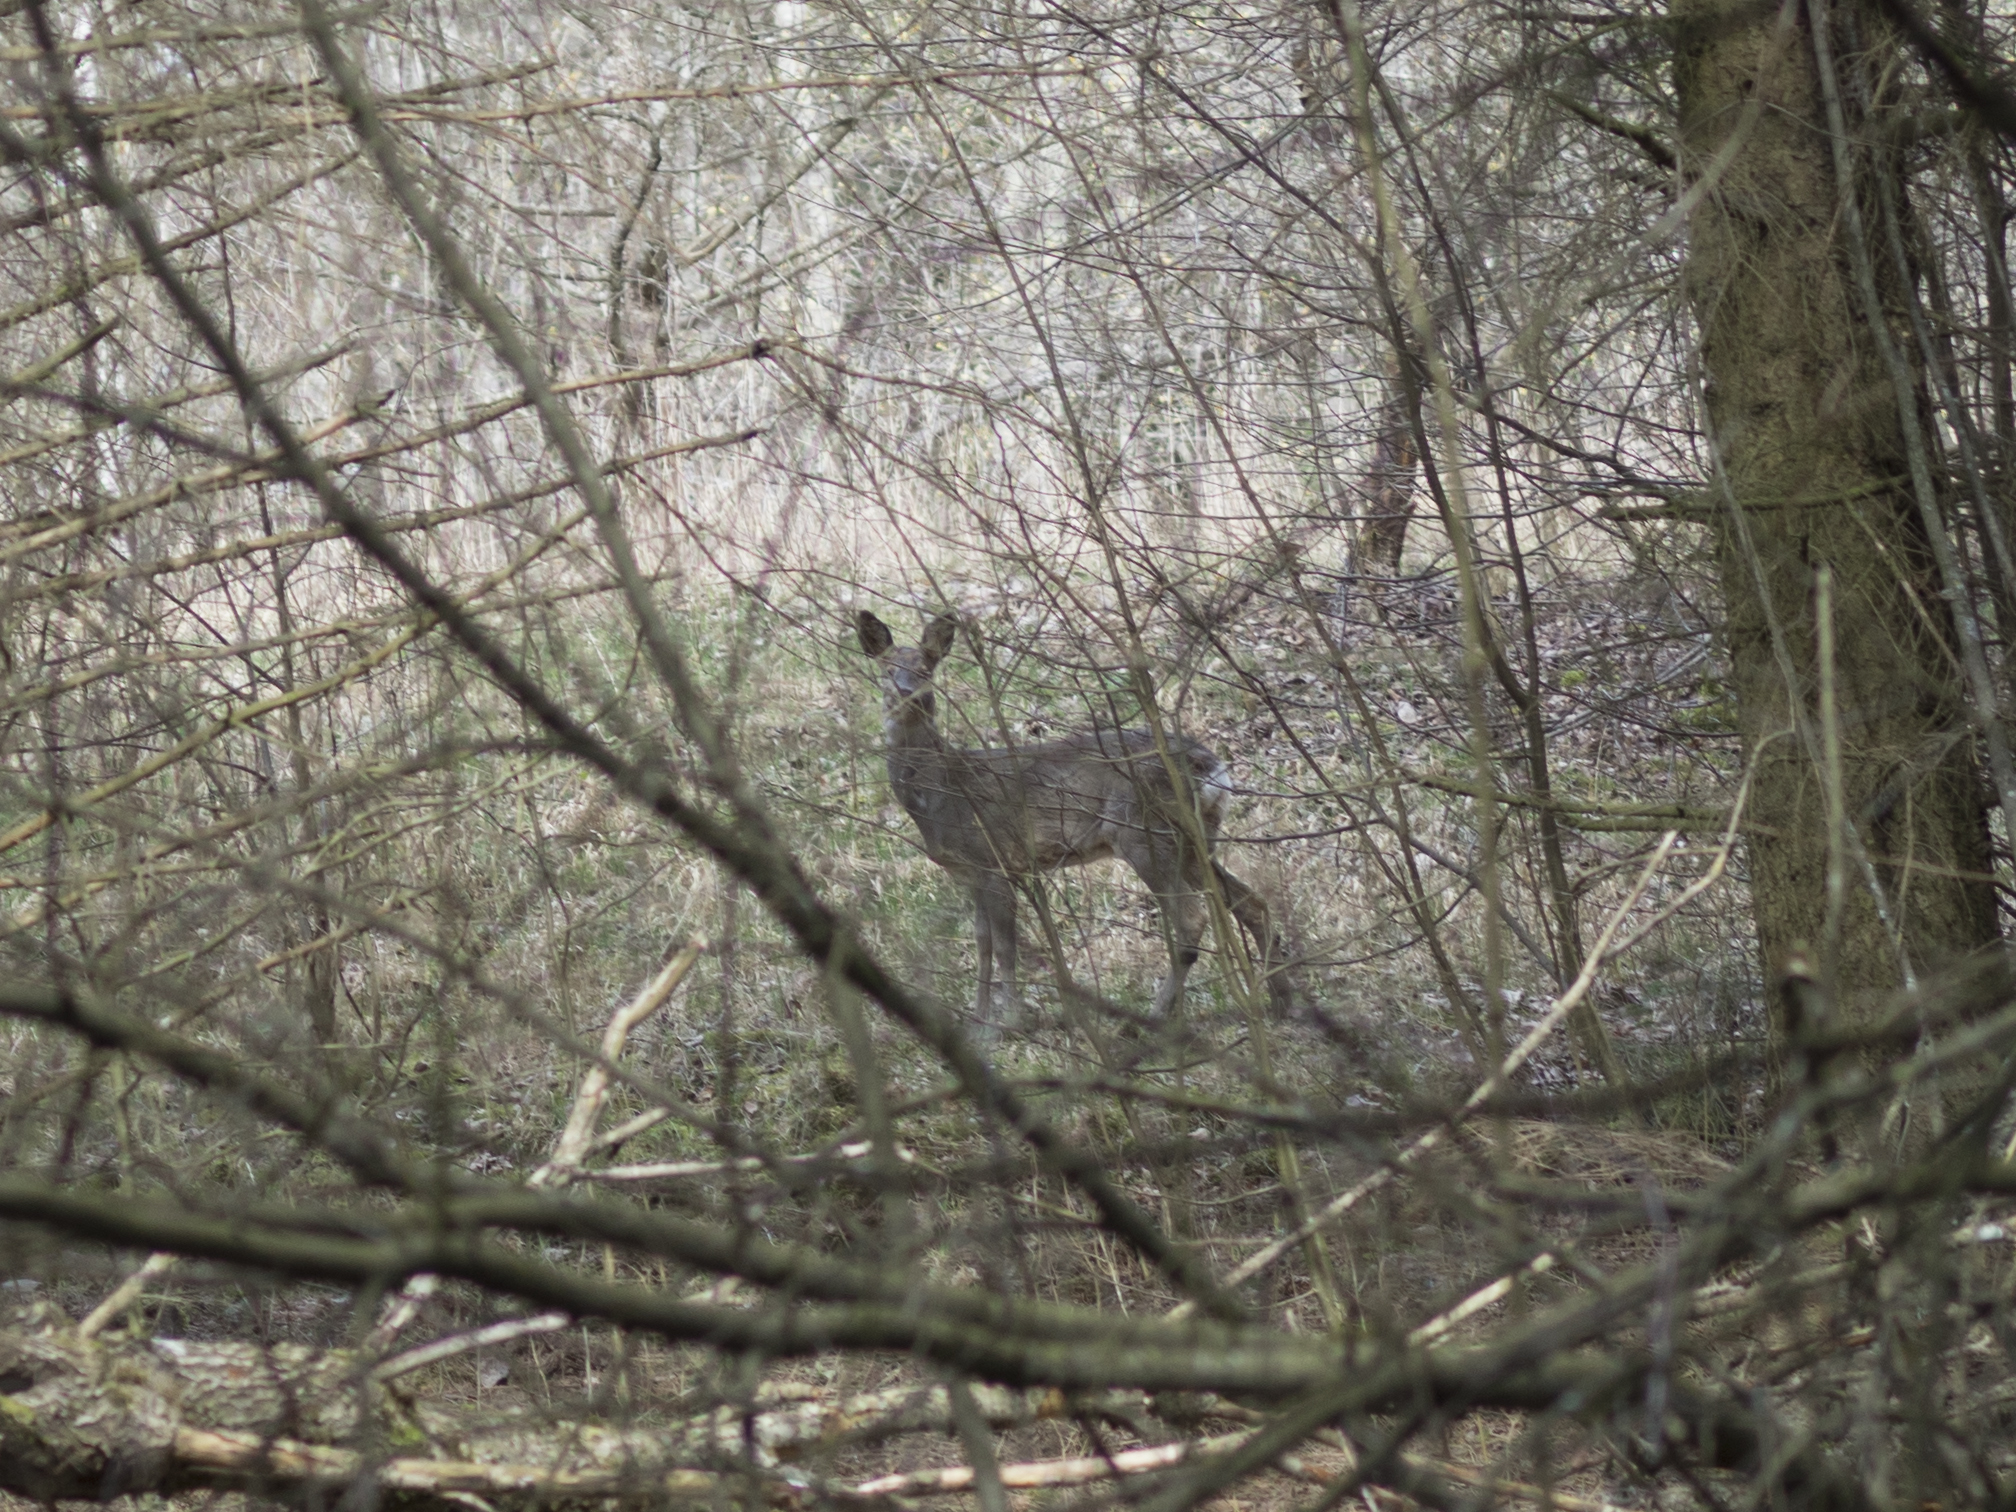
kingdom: Animalia
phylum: Chordata
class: Mammalia
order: Artiodactyla
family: Cervidae
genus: Capreolus
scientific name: Capreolus capreolus
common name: Western roe deer
